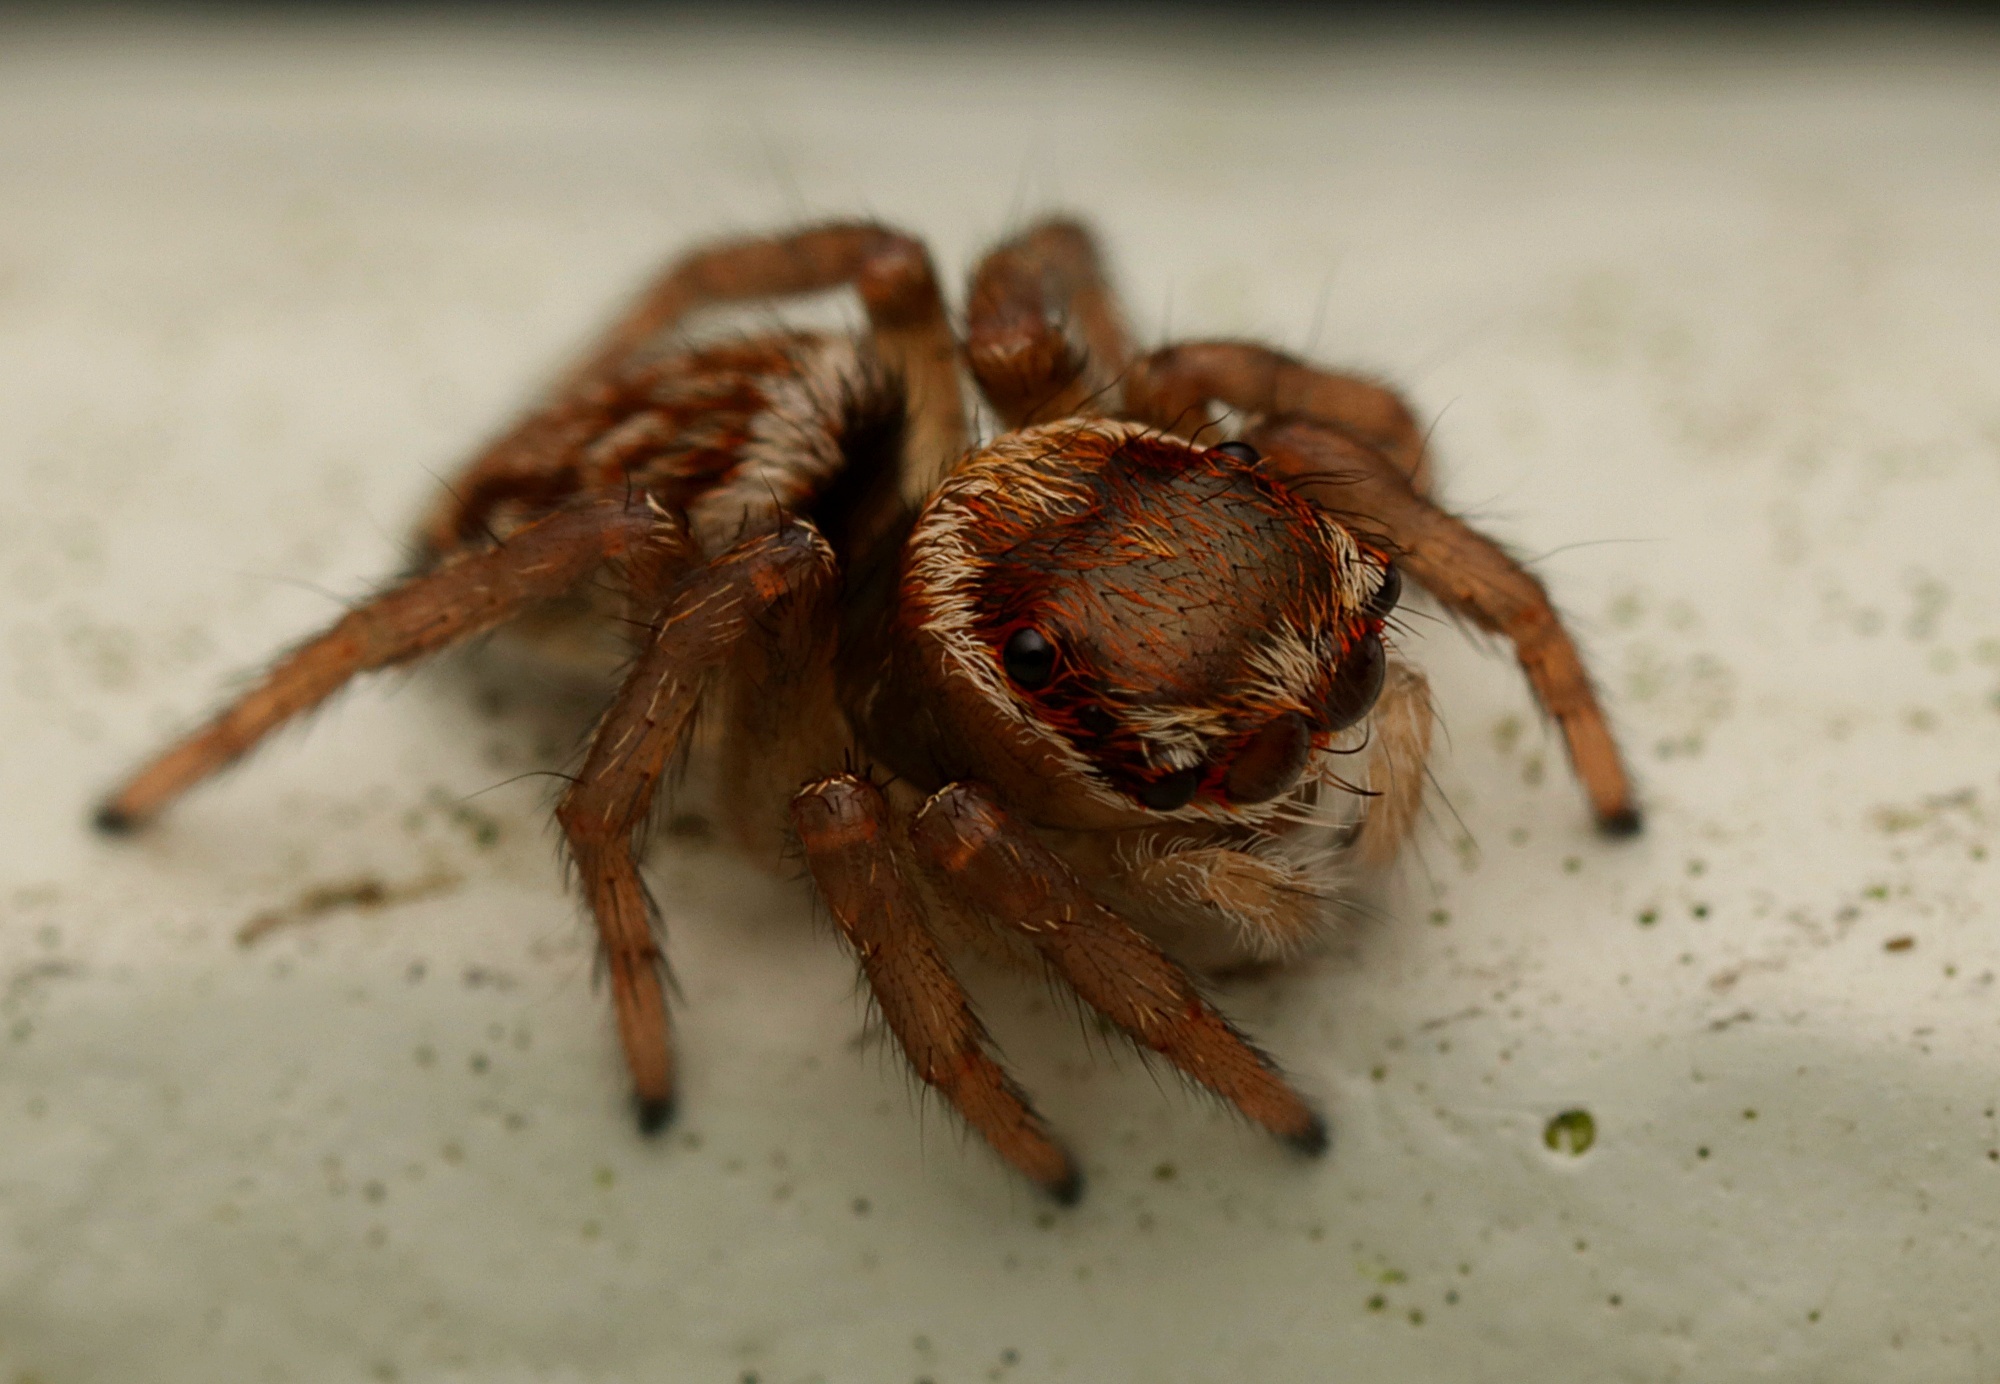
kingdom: Animalia
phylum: Arthropoda
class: Arachnida
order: Araneae
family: Salticidae
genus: Maratus
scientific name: Maratus griseus
